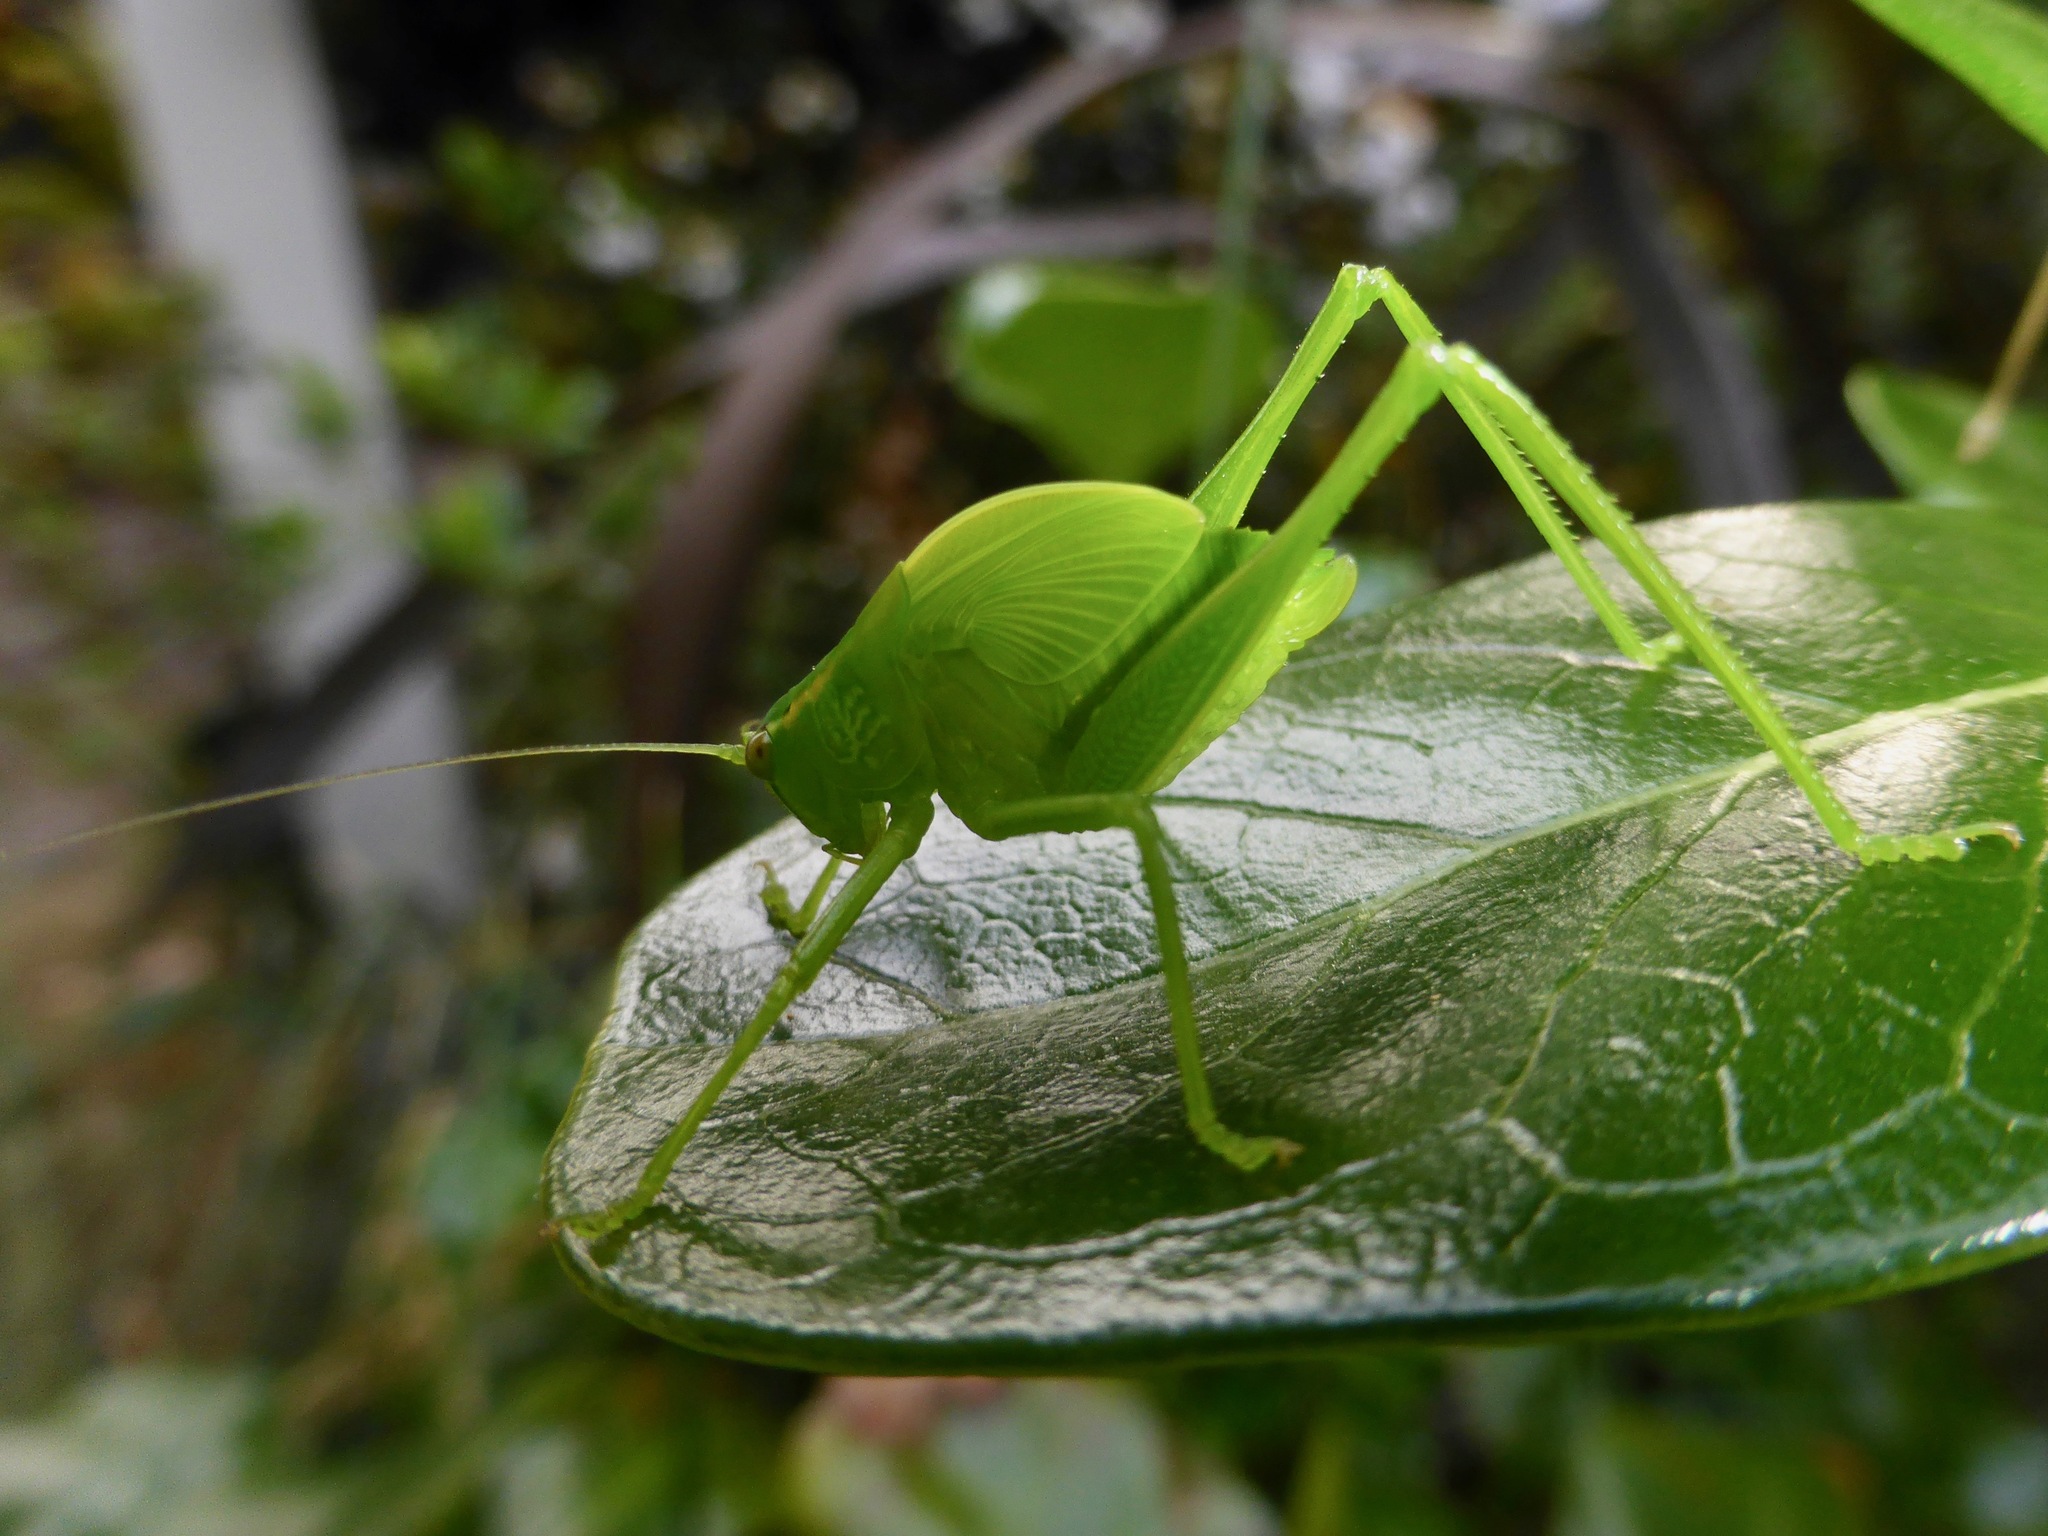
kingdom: Animalia
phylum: Arthropoda
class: Insecta
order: Orthoptera
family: Tettigoniidae
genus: Caedicia
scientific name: Caedicia simplex
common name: Common garden katydid
